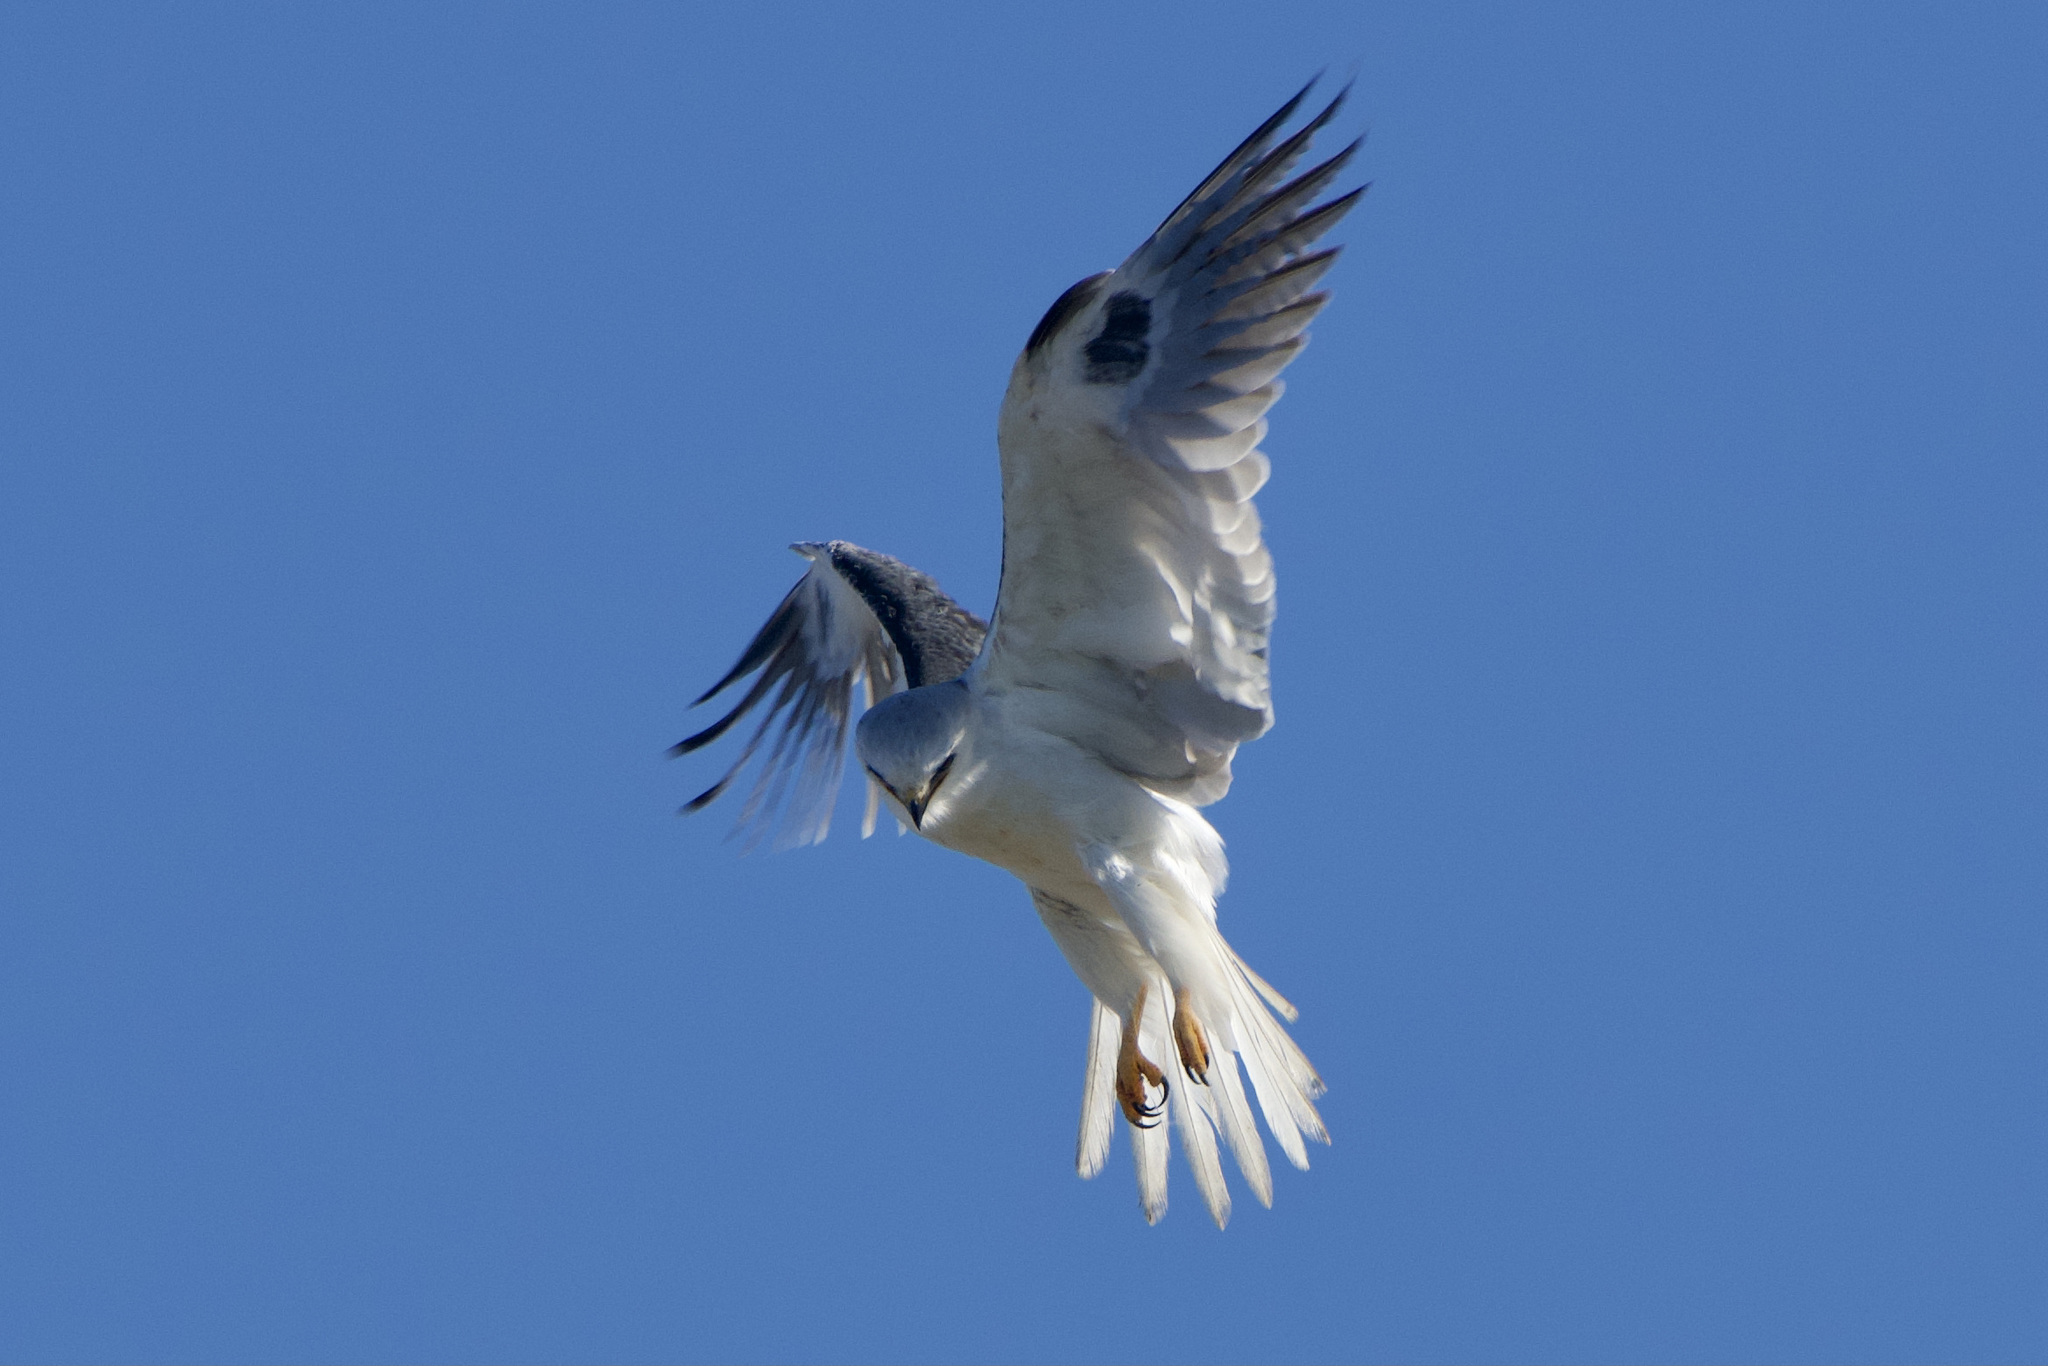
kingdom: Animalia
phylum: Chordata
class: Aves
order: Accipitriformes
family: Accipitridae
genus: Elanus
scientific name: Elanus leucurus
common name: White-tailed kite
